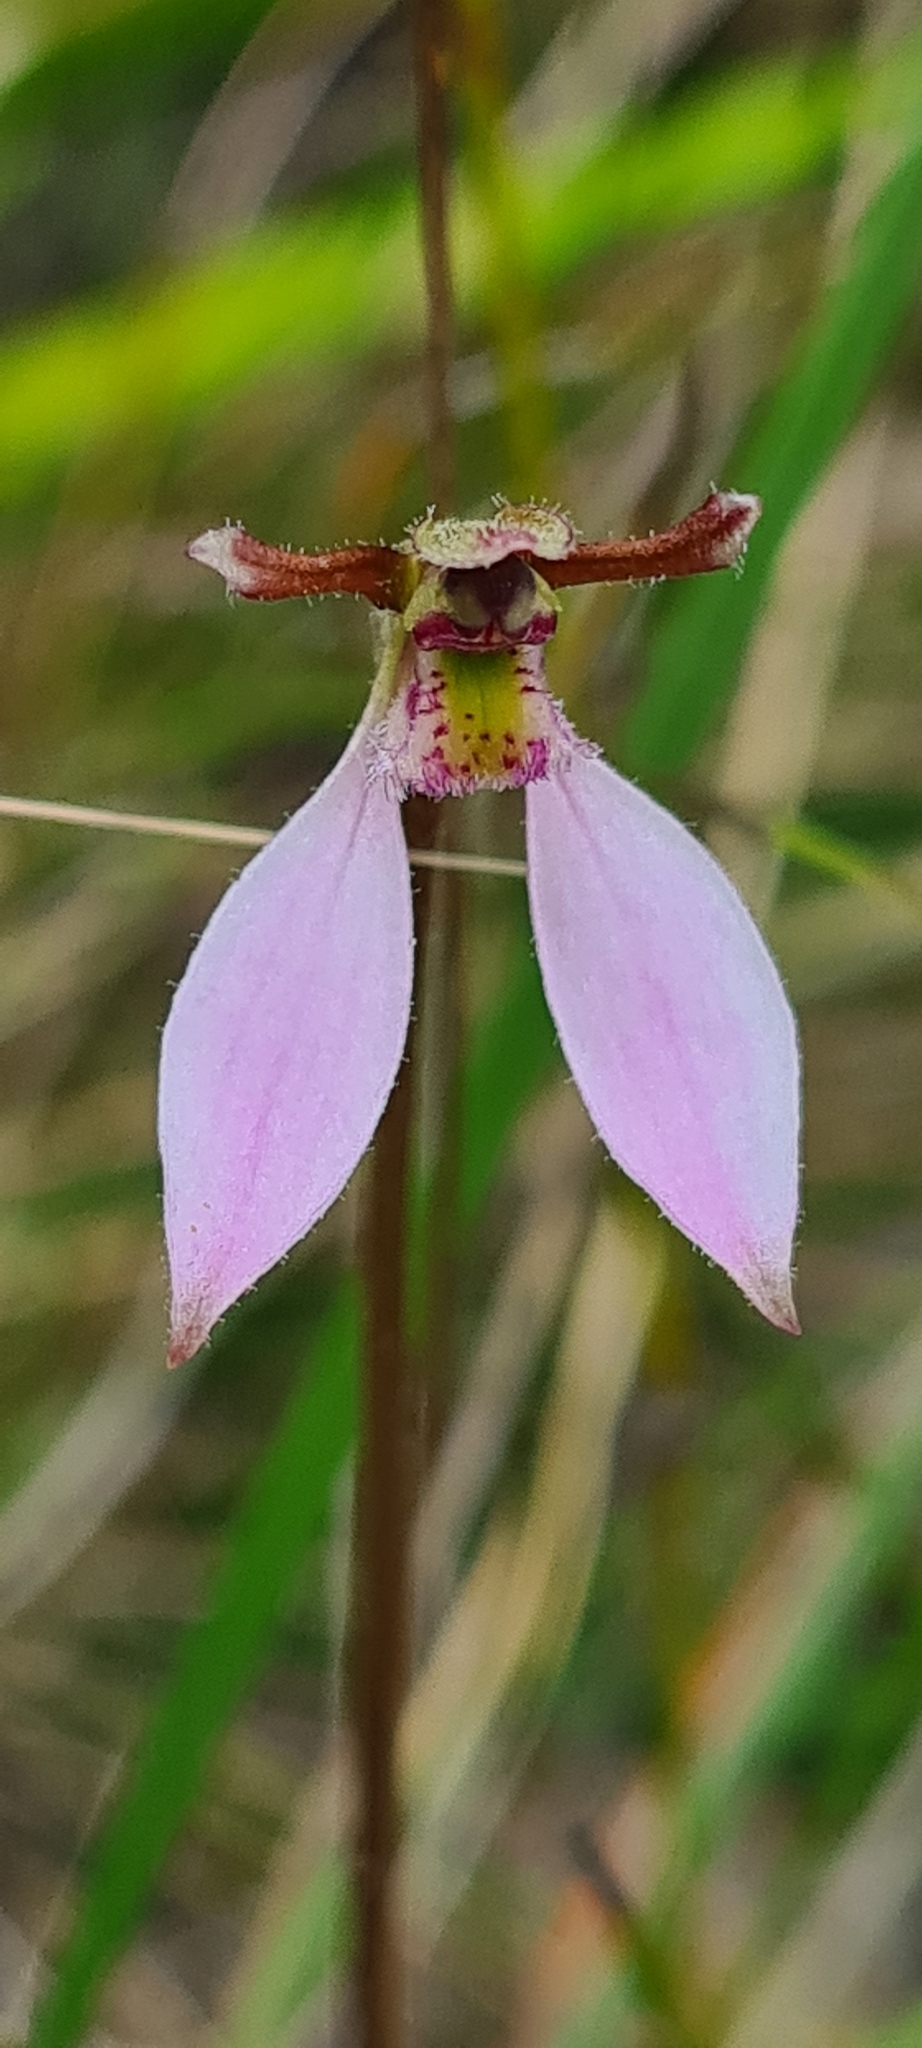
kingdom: Plantae
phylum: Tracheophyta
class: Liliopsida
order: Asparagales
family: Orchidaceae
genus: Eriochilus
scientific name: Eriochilus cucullatus
